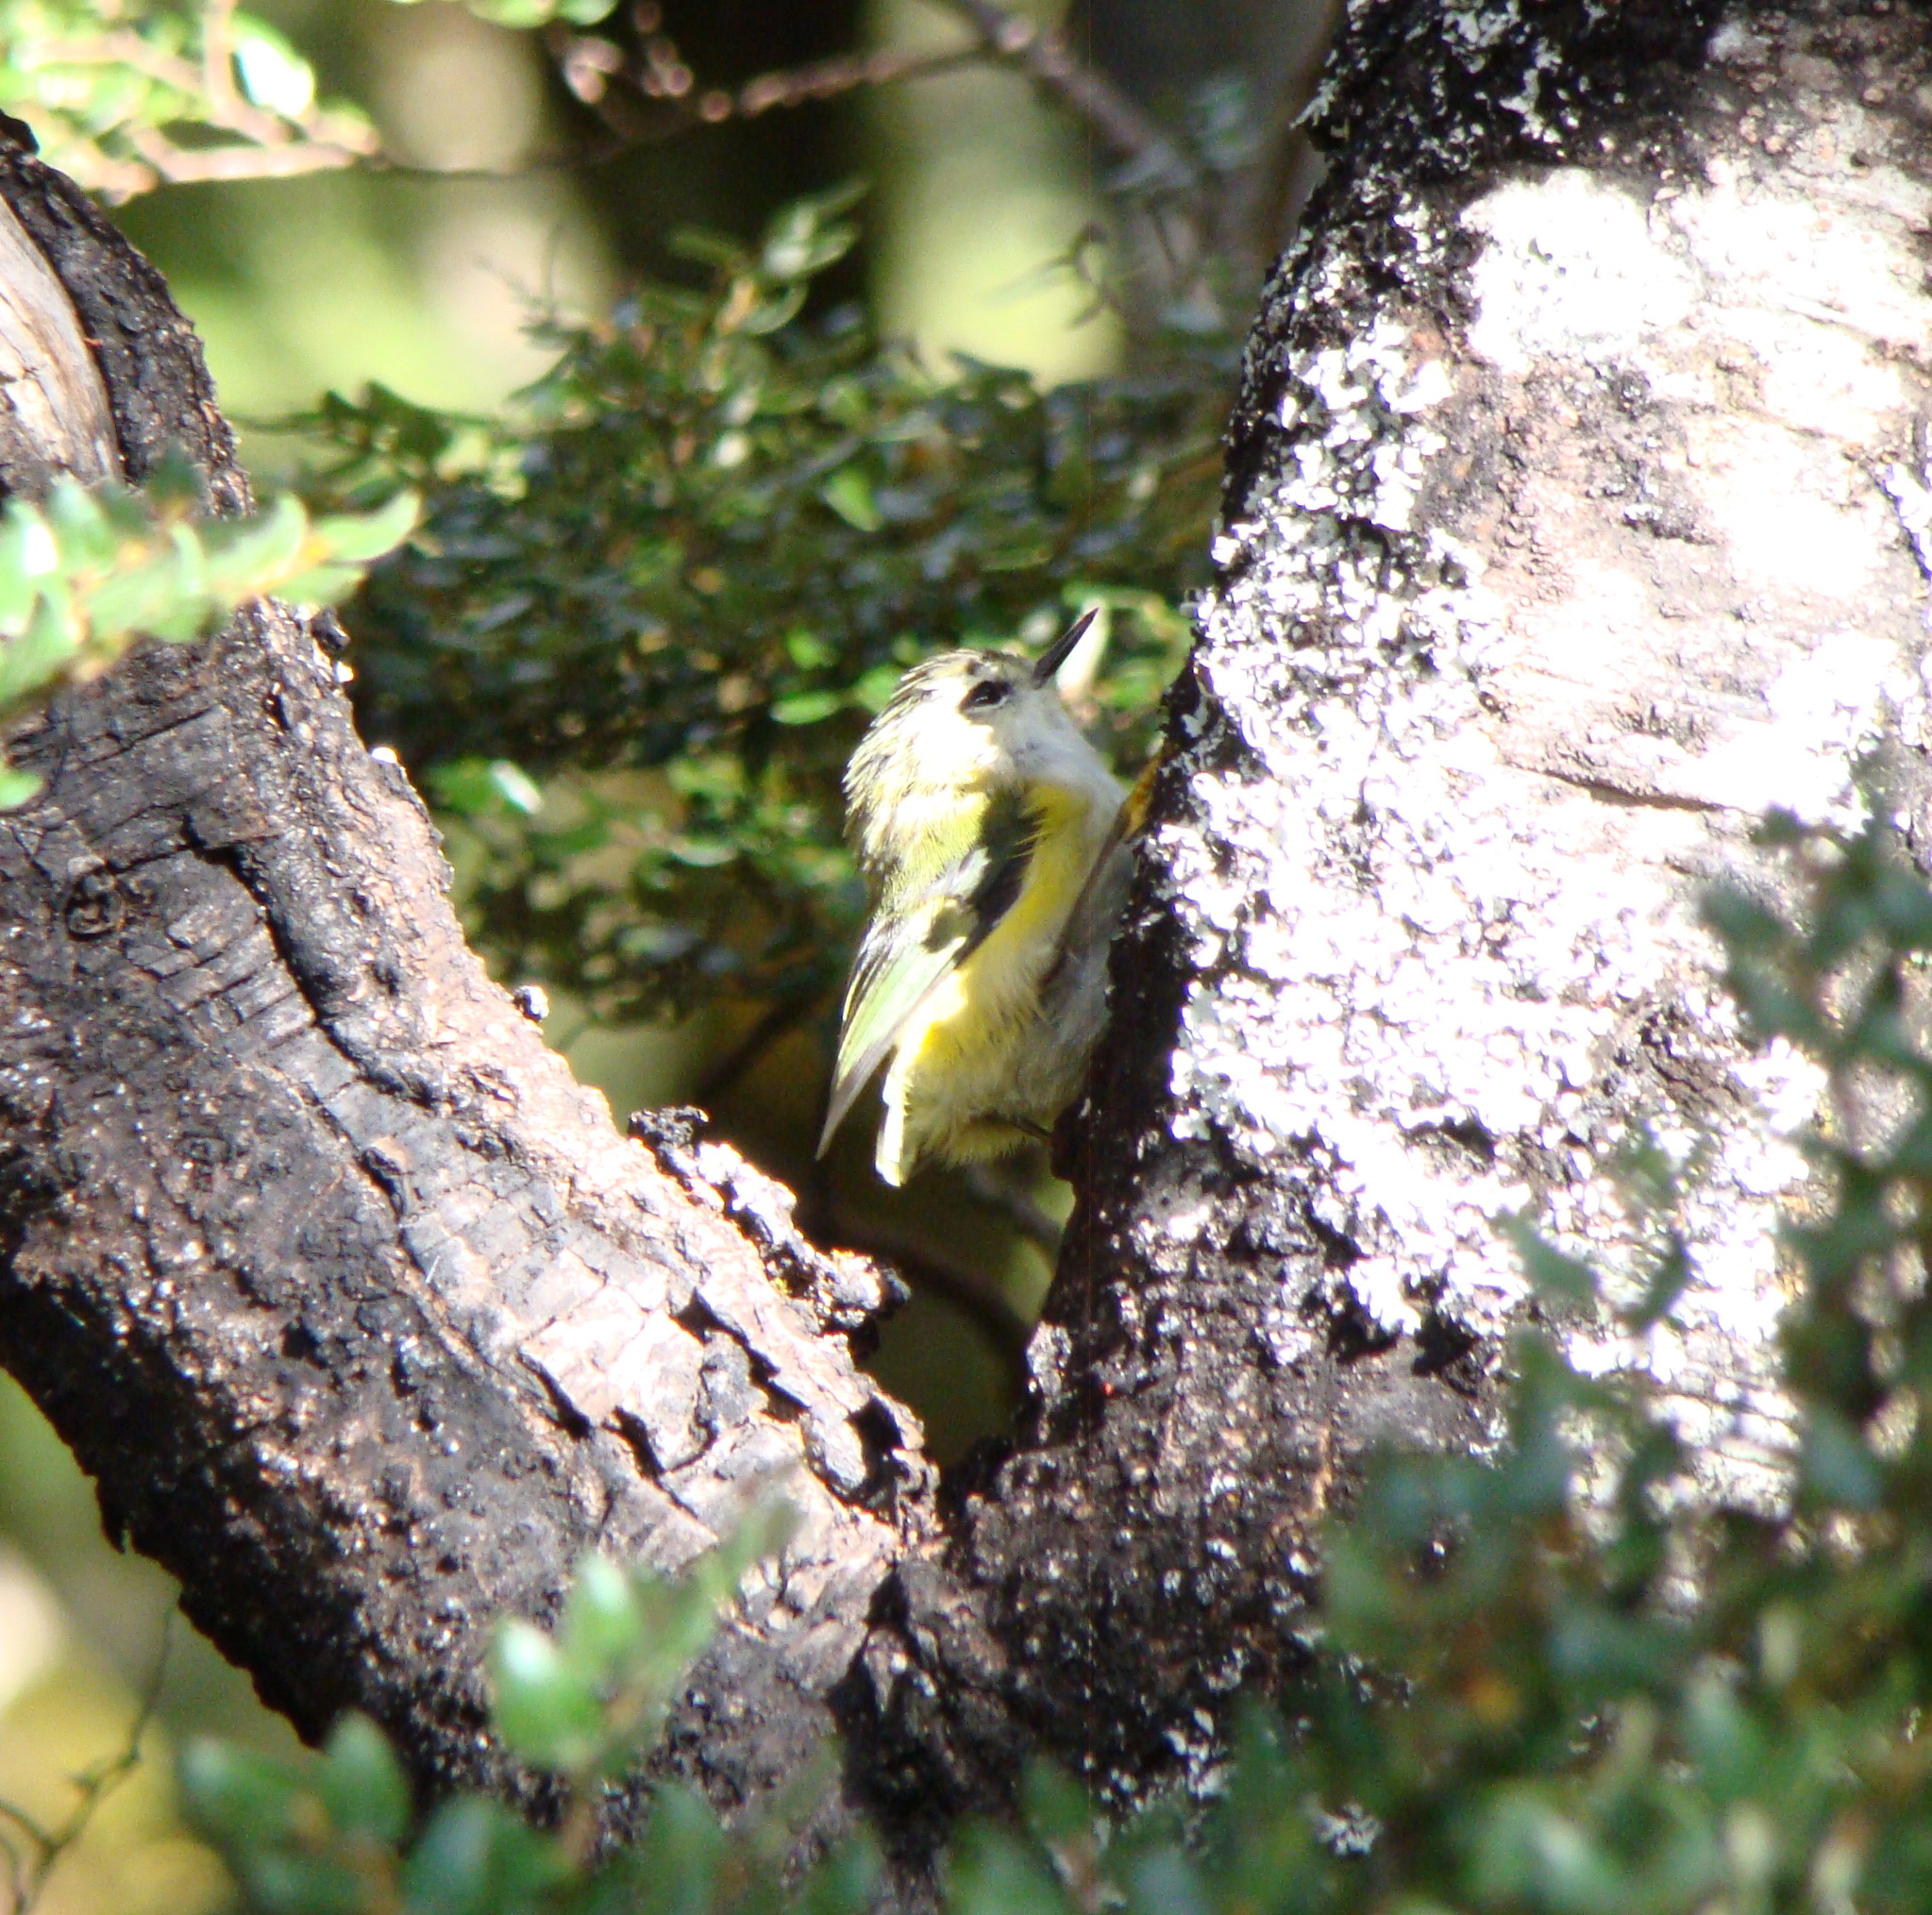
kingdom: Animalia
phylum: Chordata
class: Aves
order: Passeriformes
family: Acanthisittidae
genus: Acanthisitta
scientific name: Acanthisitta chloris
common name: Rifleman
